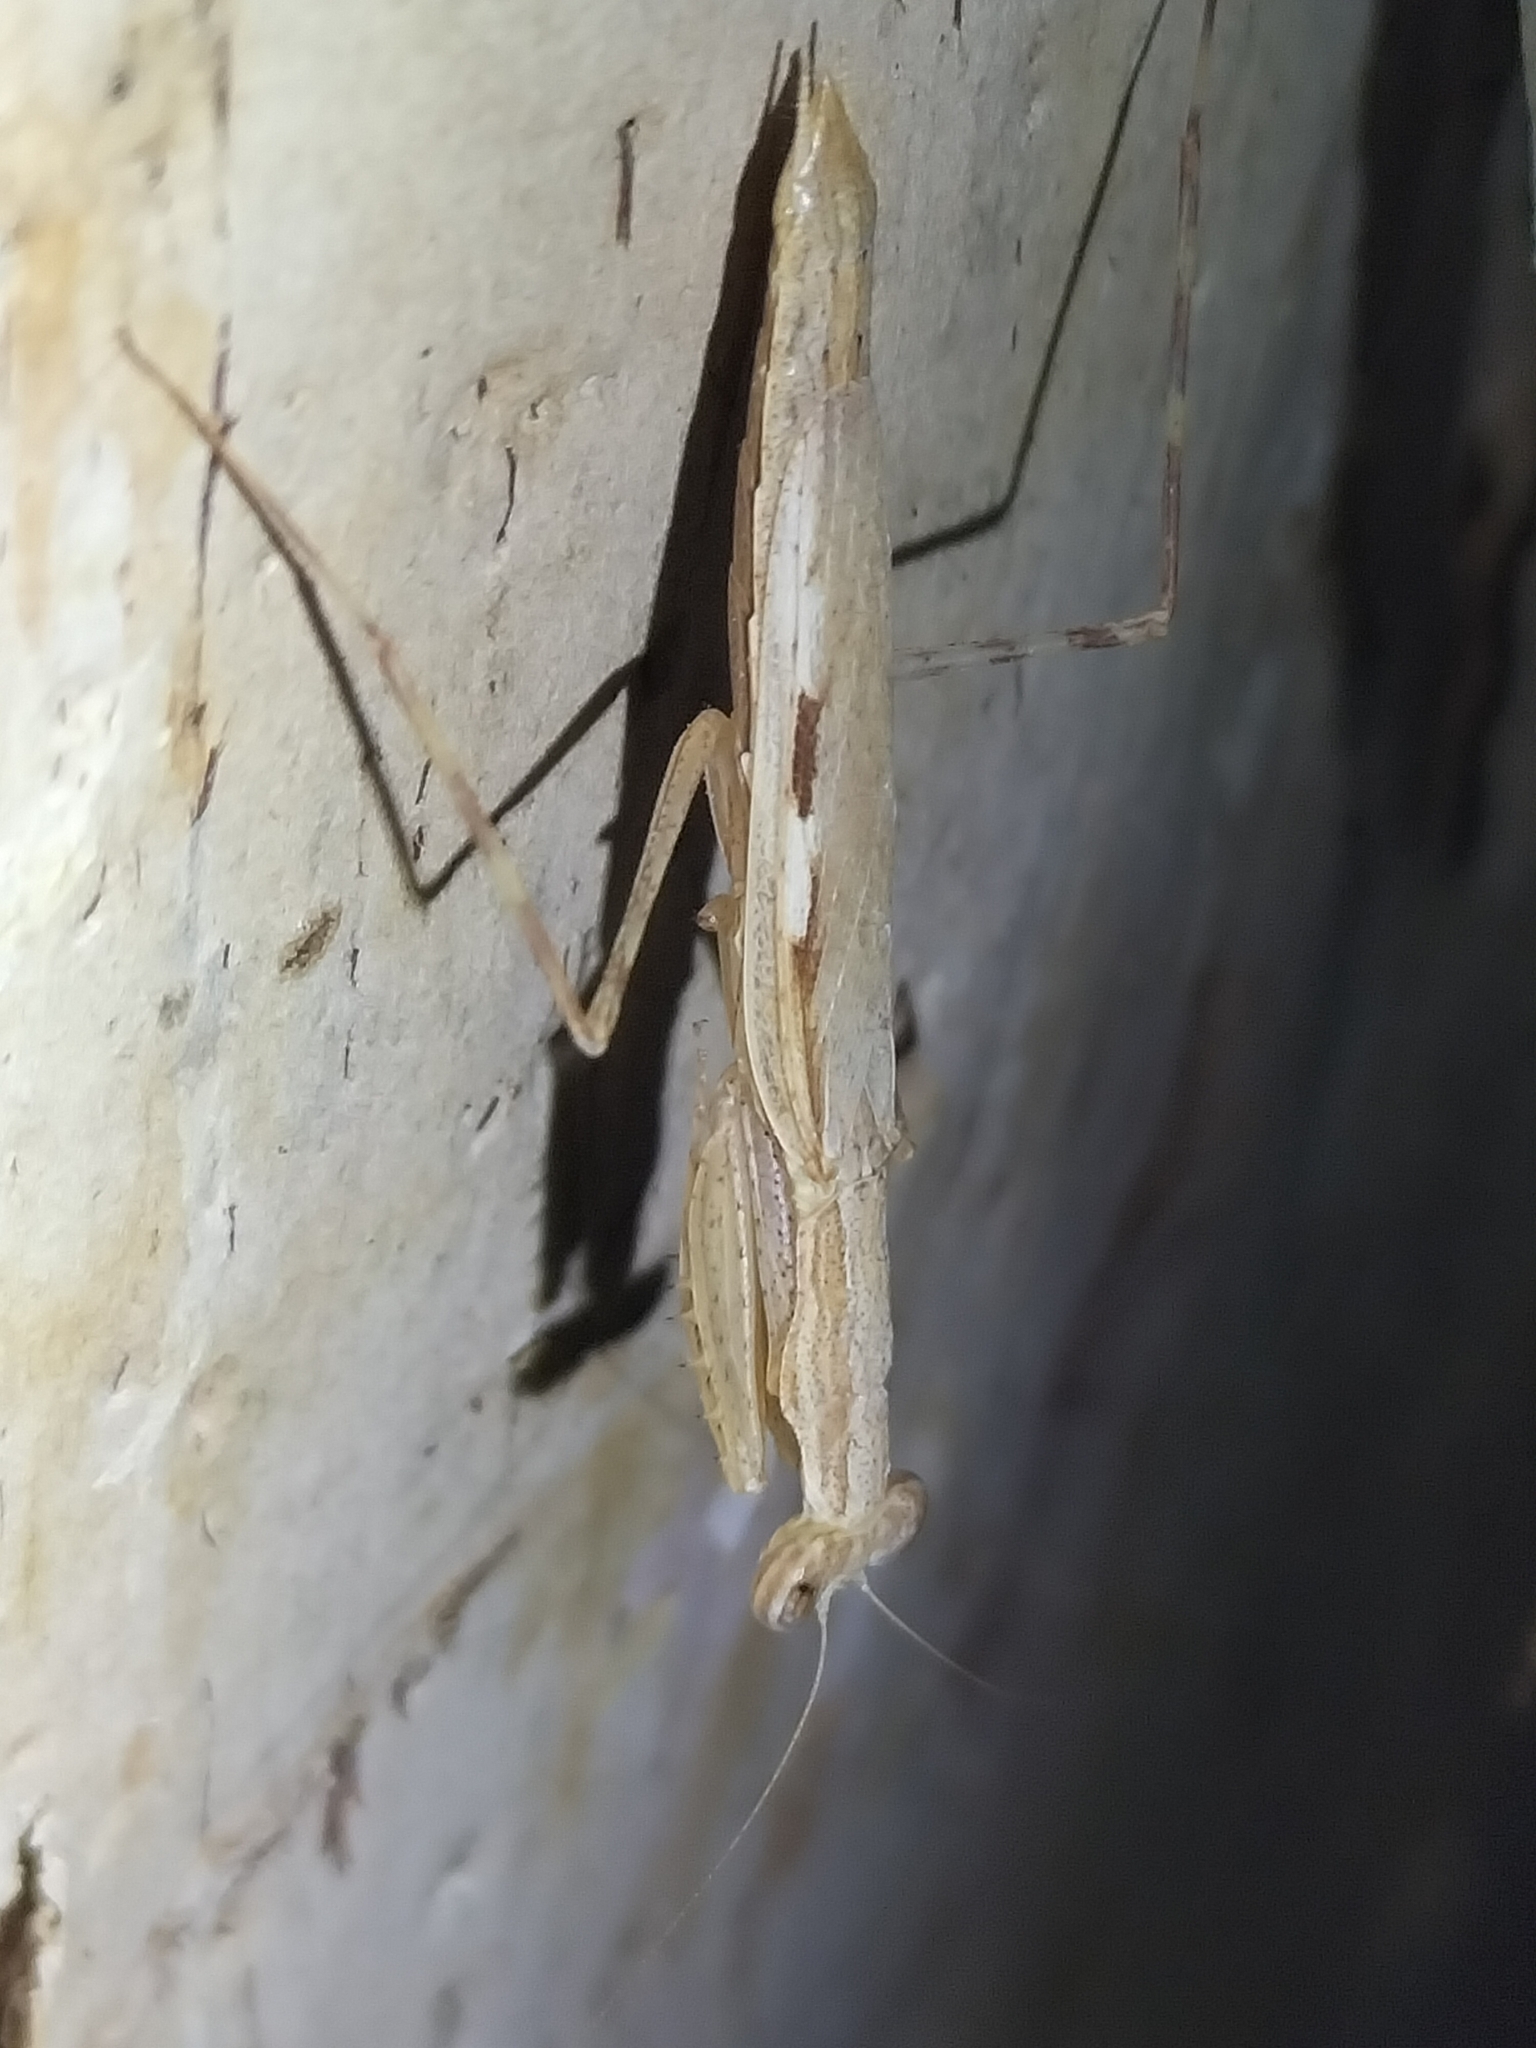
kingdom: Animalia
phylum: Arthropoda
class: Insecta
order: Mantodea
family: Nanomantidae
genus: Ima
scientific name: Ima fusca
